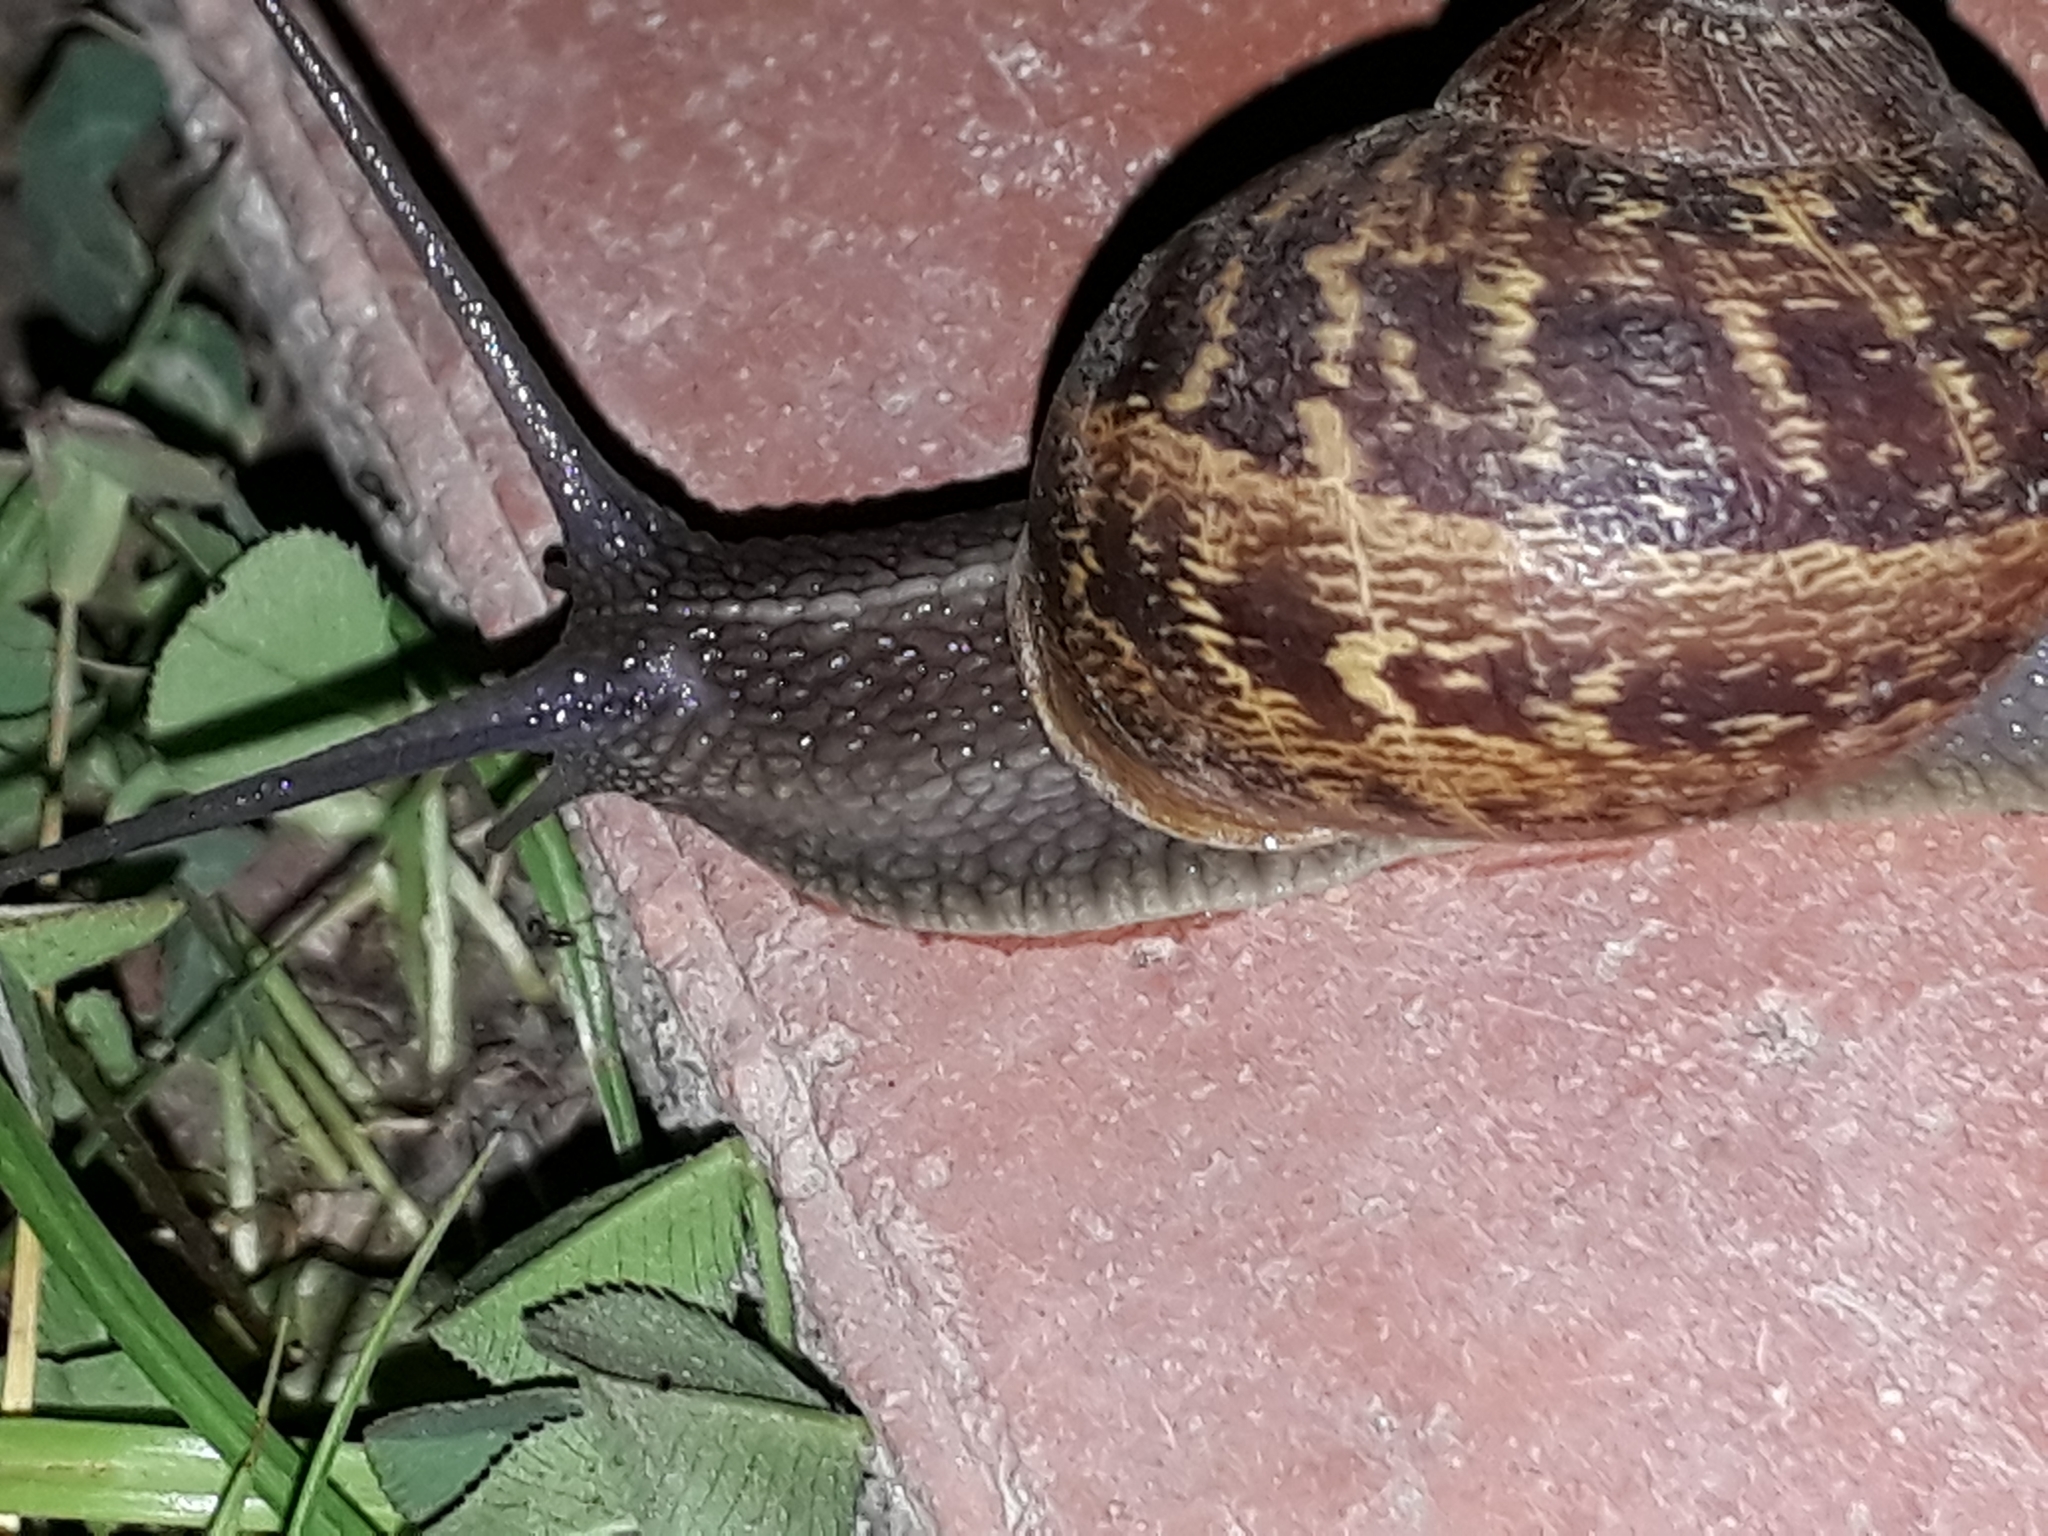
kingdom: Animalia
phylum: Mollusca
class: Gastropoda
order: Stylommatophora
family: Helicidae
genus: Cornu
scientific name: Cornu aspersum
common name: Brown garden snail
